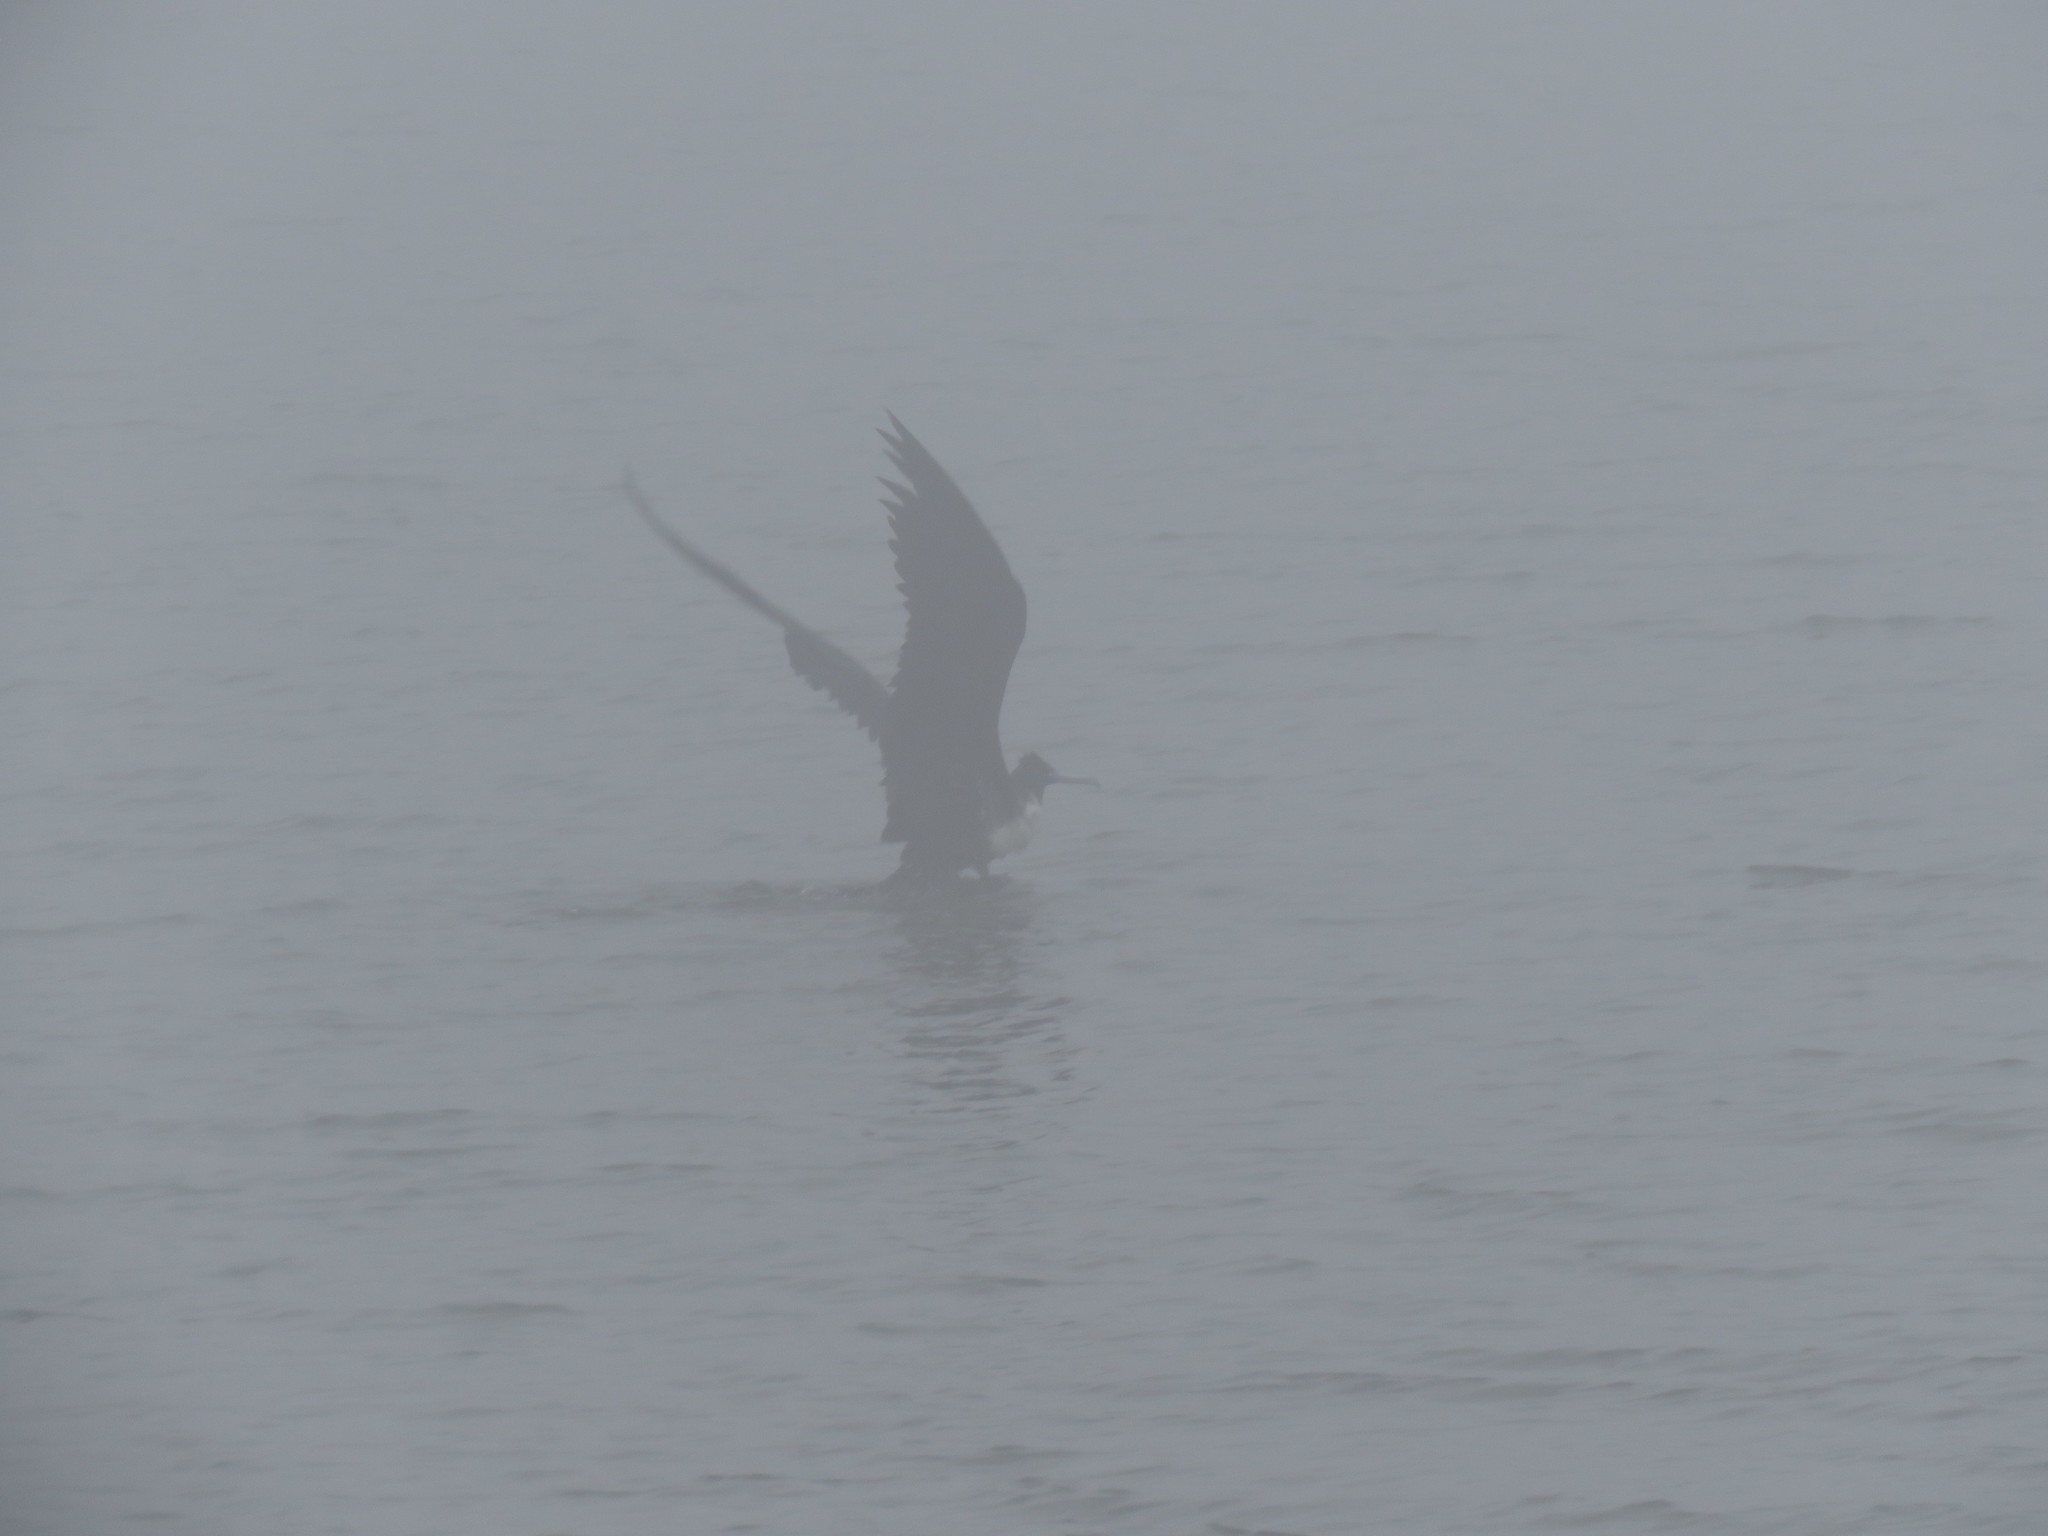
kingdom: Animalia
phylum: Chordata
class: Aves
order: Suliformes
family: Fregatidae
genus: Fregata
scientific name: Fregata magnificens
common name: Magnificent frigatebird
